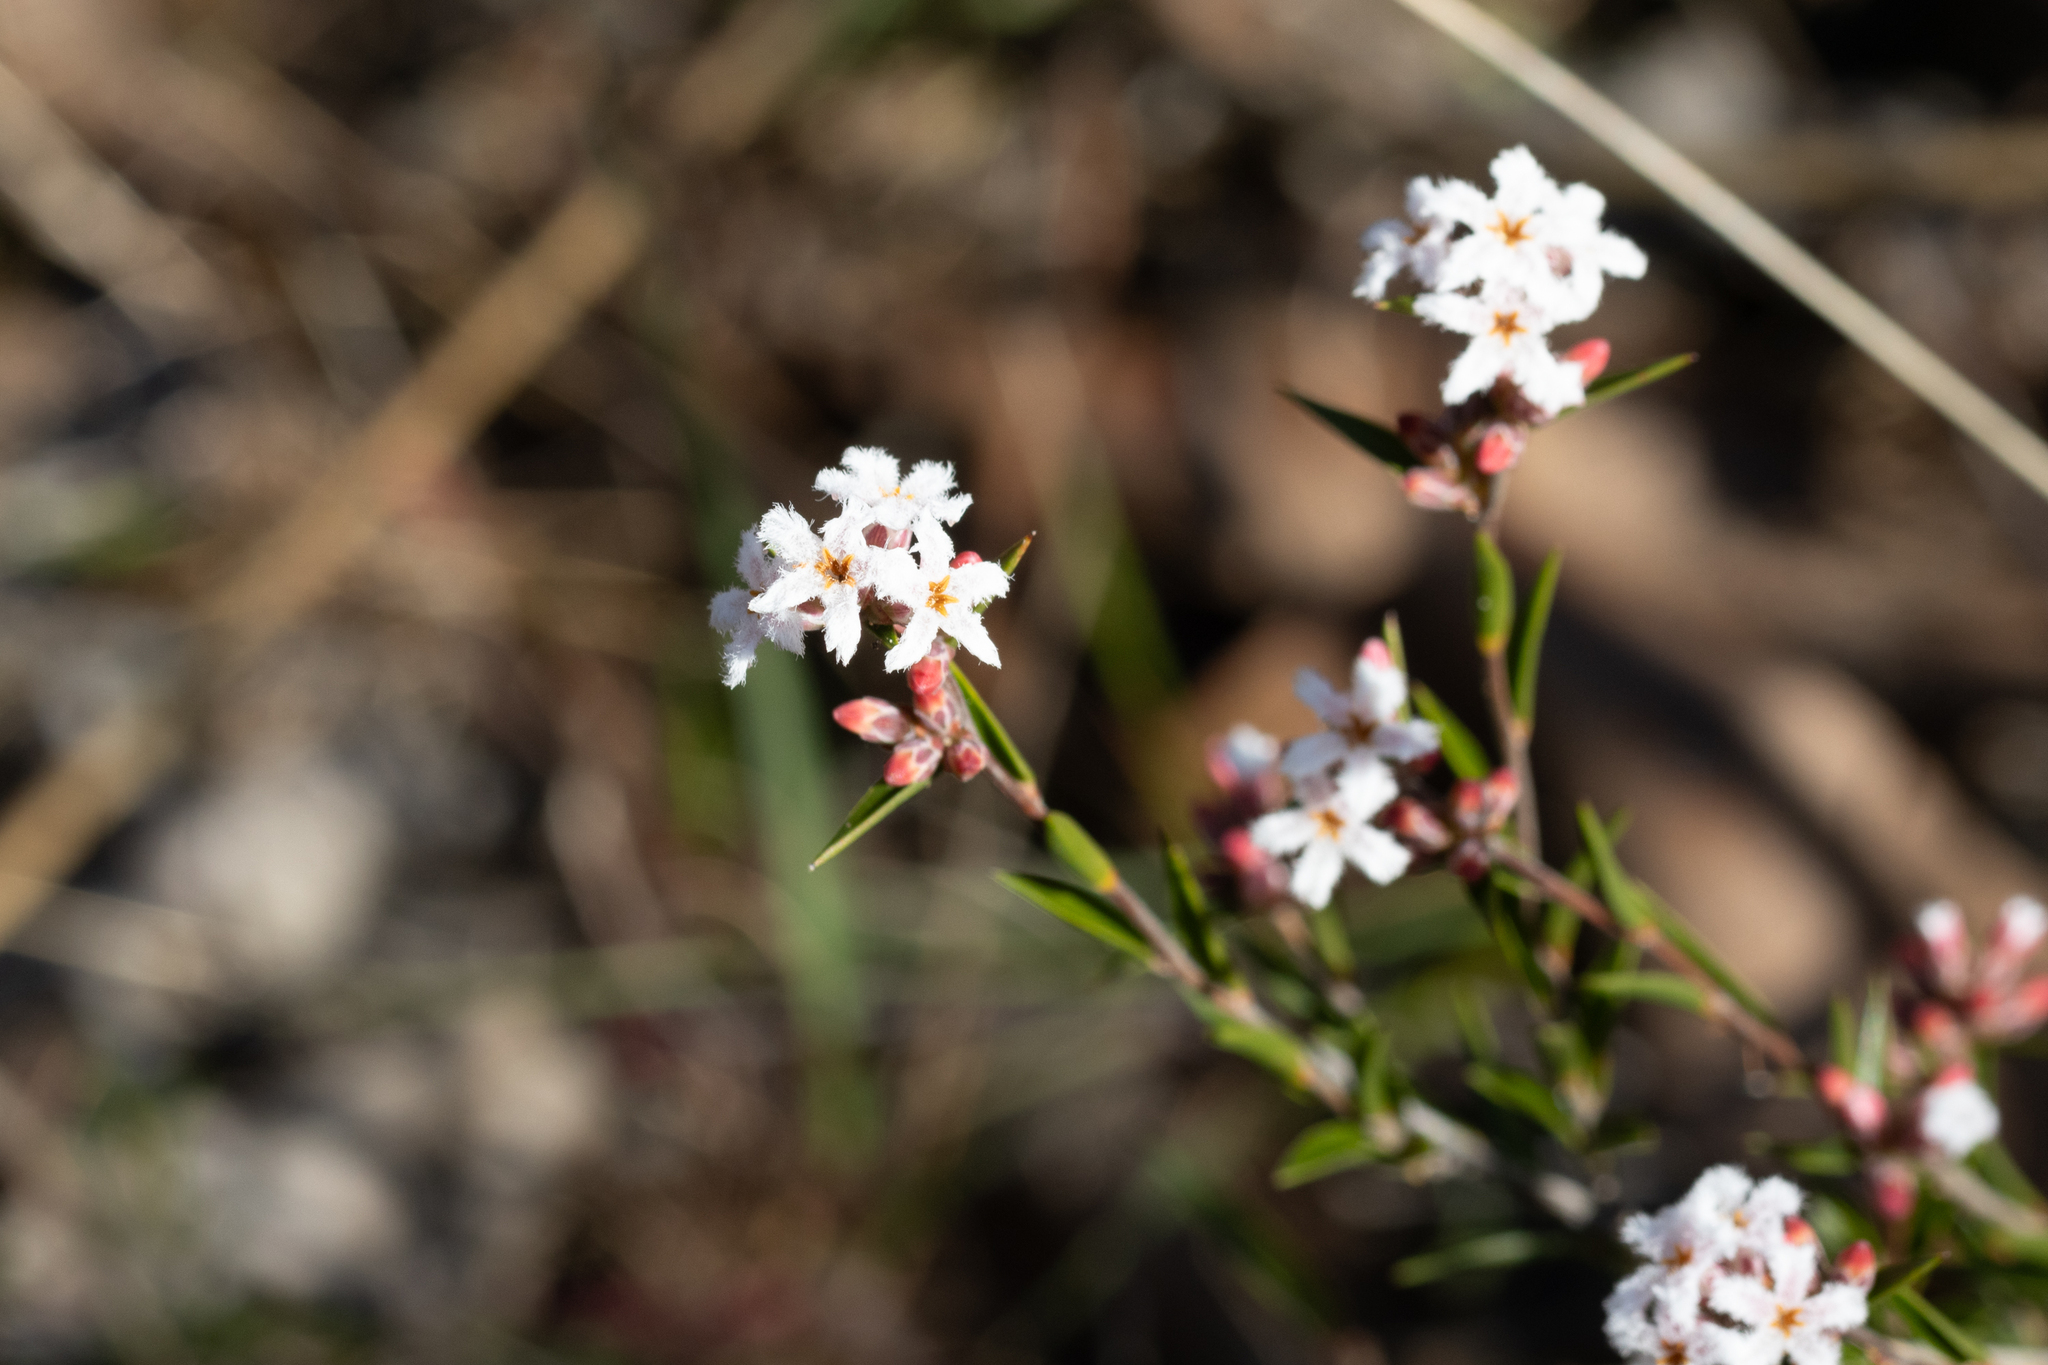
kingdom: Plantae
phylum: Tracheophyta
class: Magnoliopsida
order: Ericales
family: Ericaceae
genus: Leucopogon
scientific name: Leucopogon virgatus
